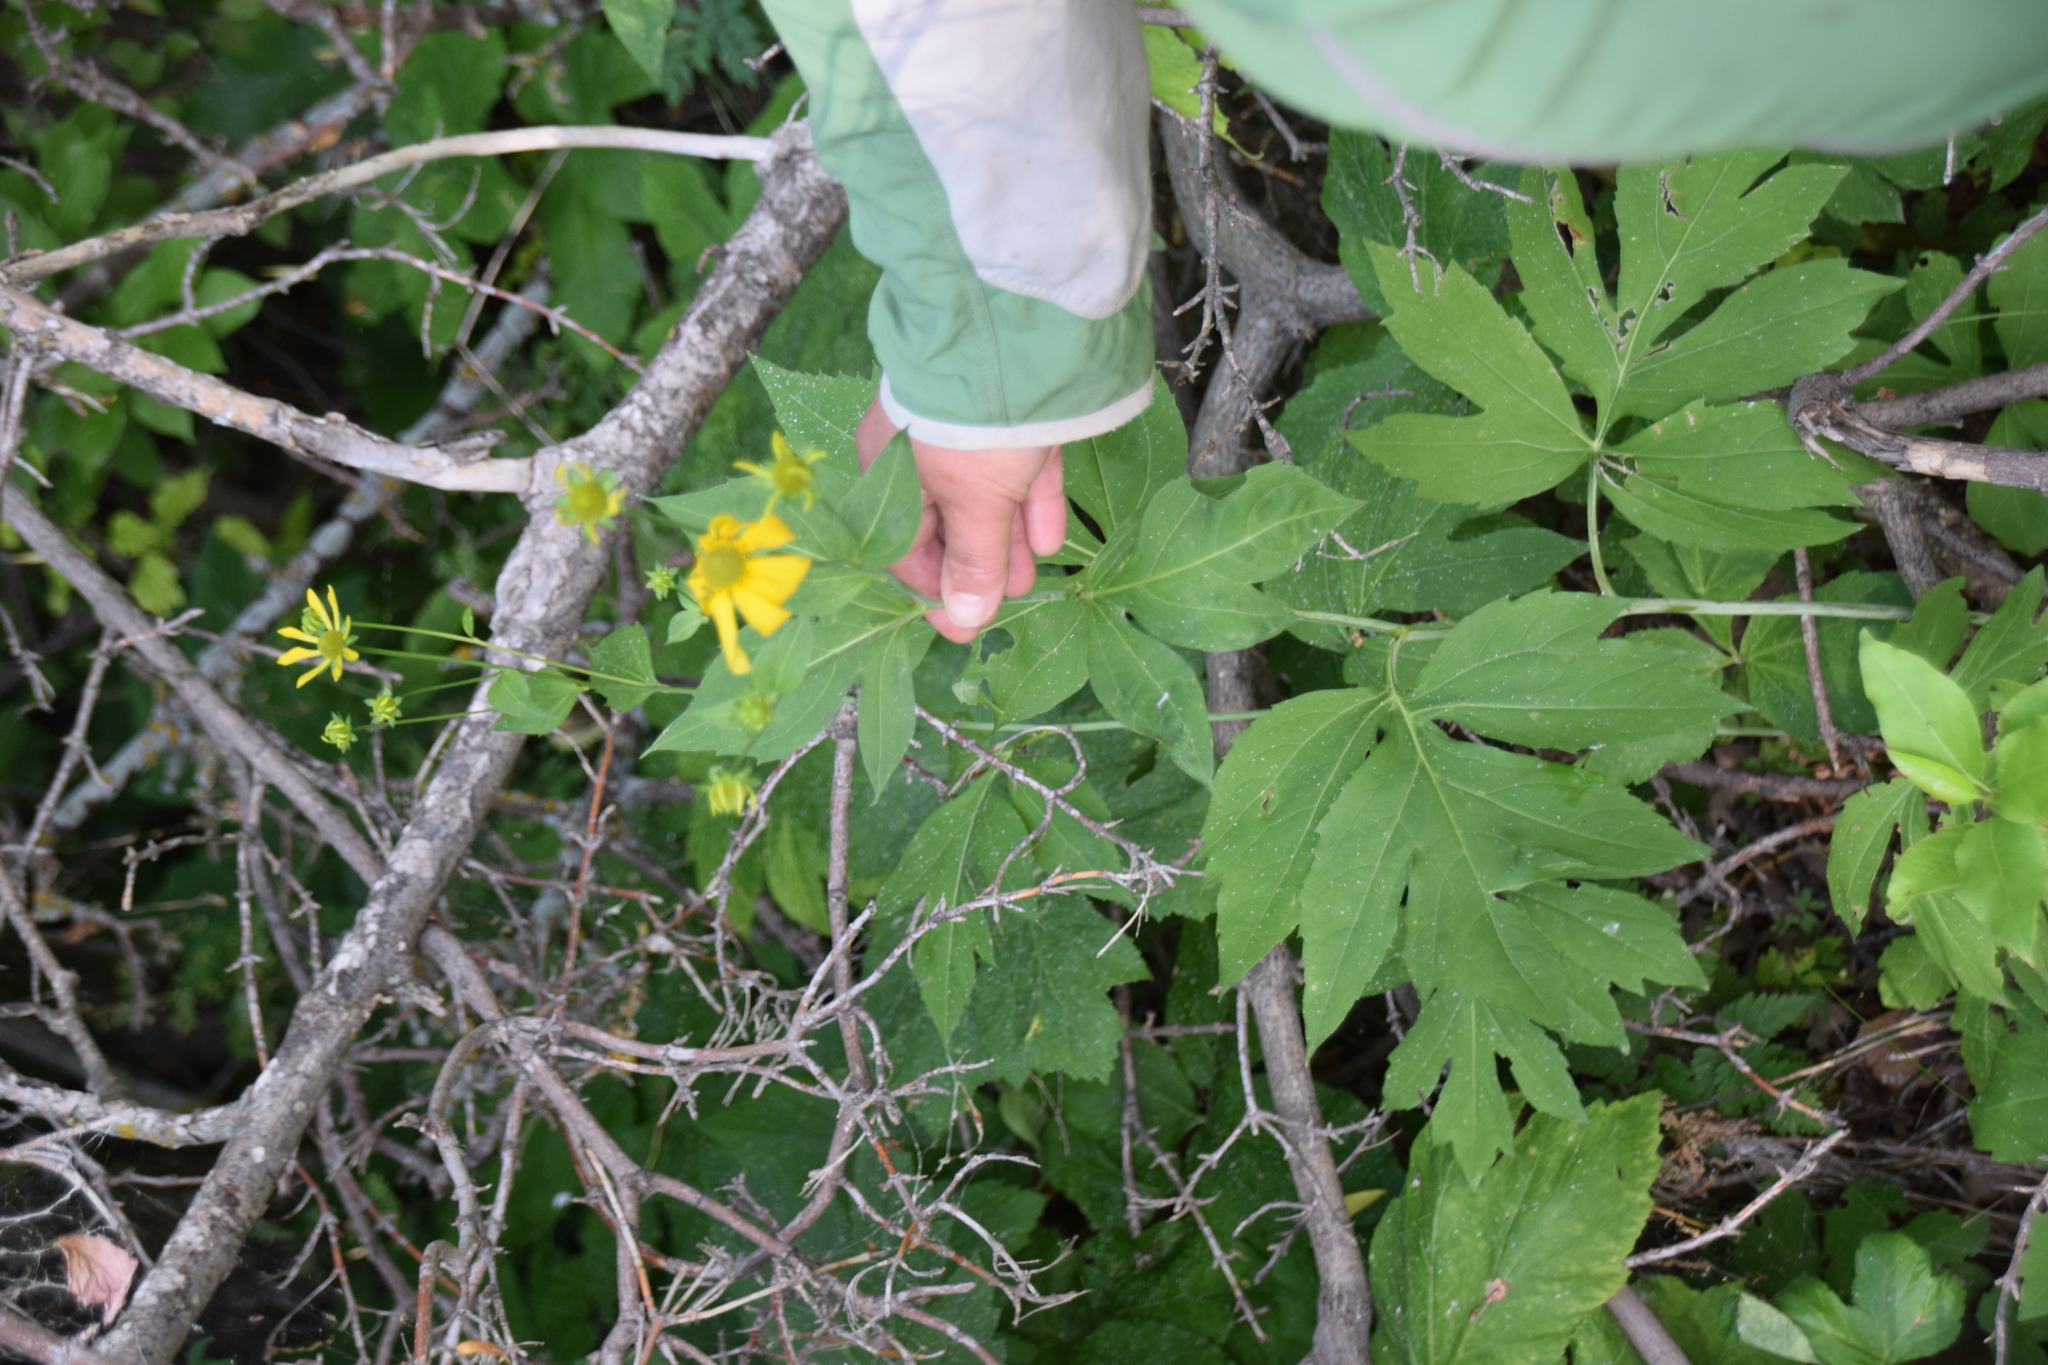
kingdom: Plantae
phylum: Tracheophyta
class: Magnoliopsida
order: Asterales
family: Asteraceae
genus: Rudbeckia
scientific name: Rudbeckia laciniata
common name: Coneflower
